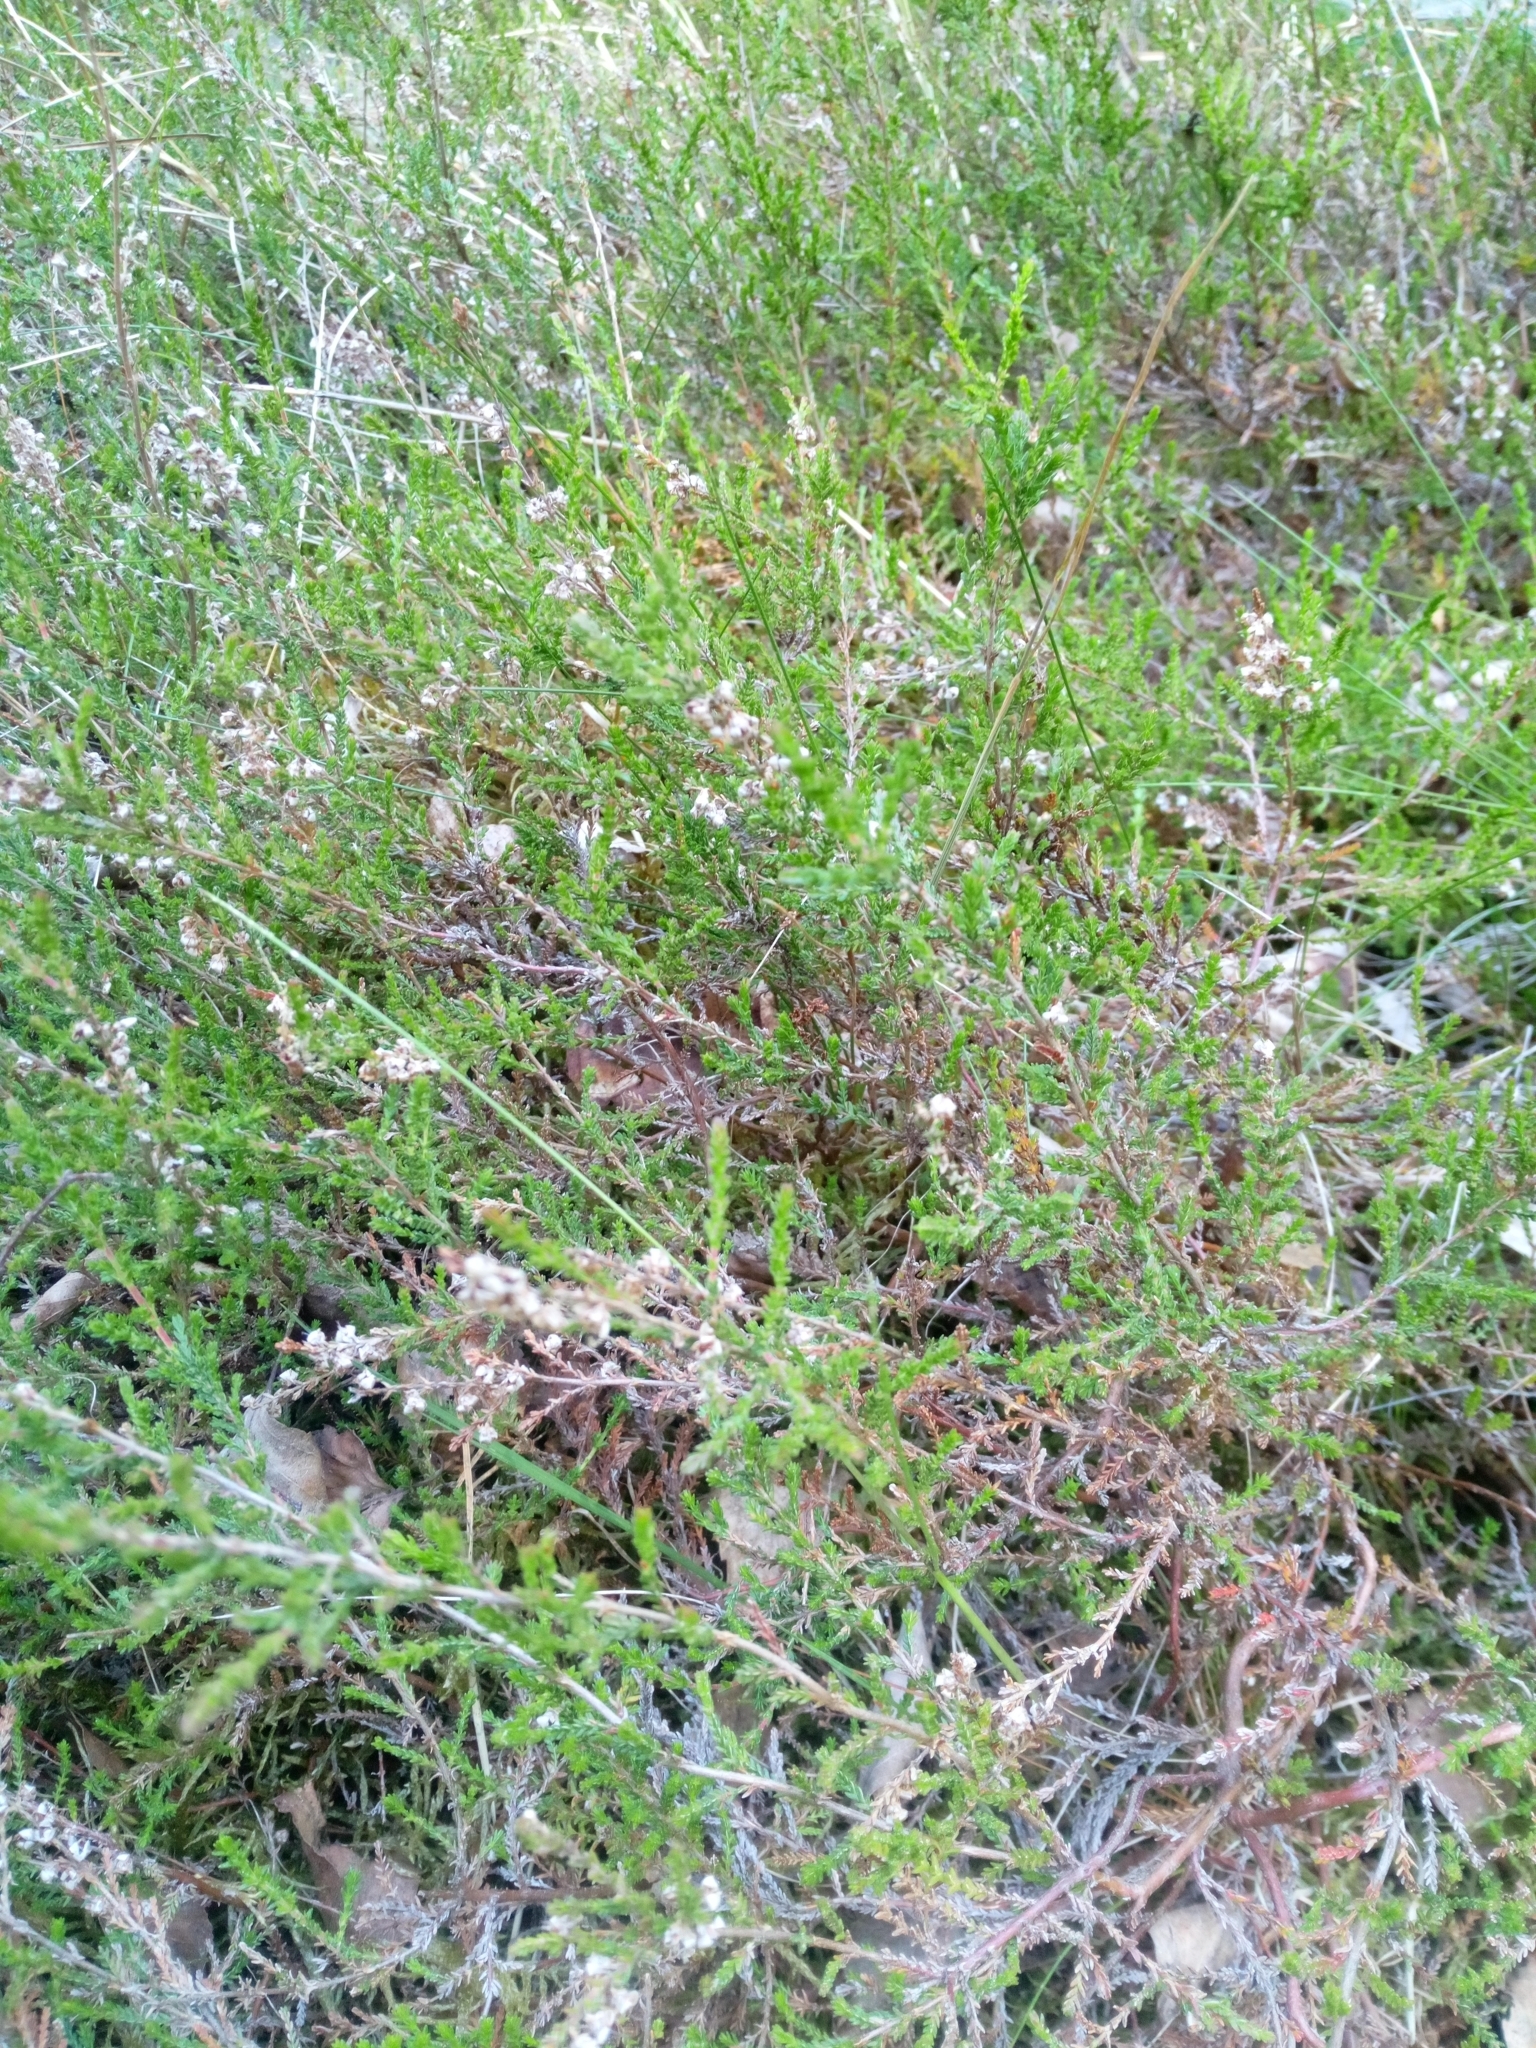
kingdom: Plantae
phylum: Tracheophyta
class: Magnoliopsida
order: Ericales
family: Ericaceae
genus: Calluna
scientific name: Calluna vulgaris
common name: Heather
